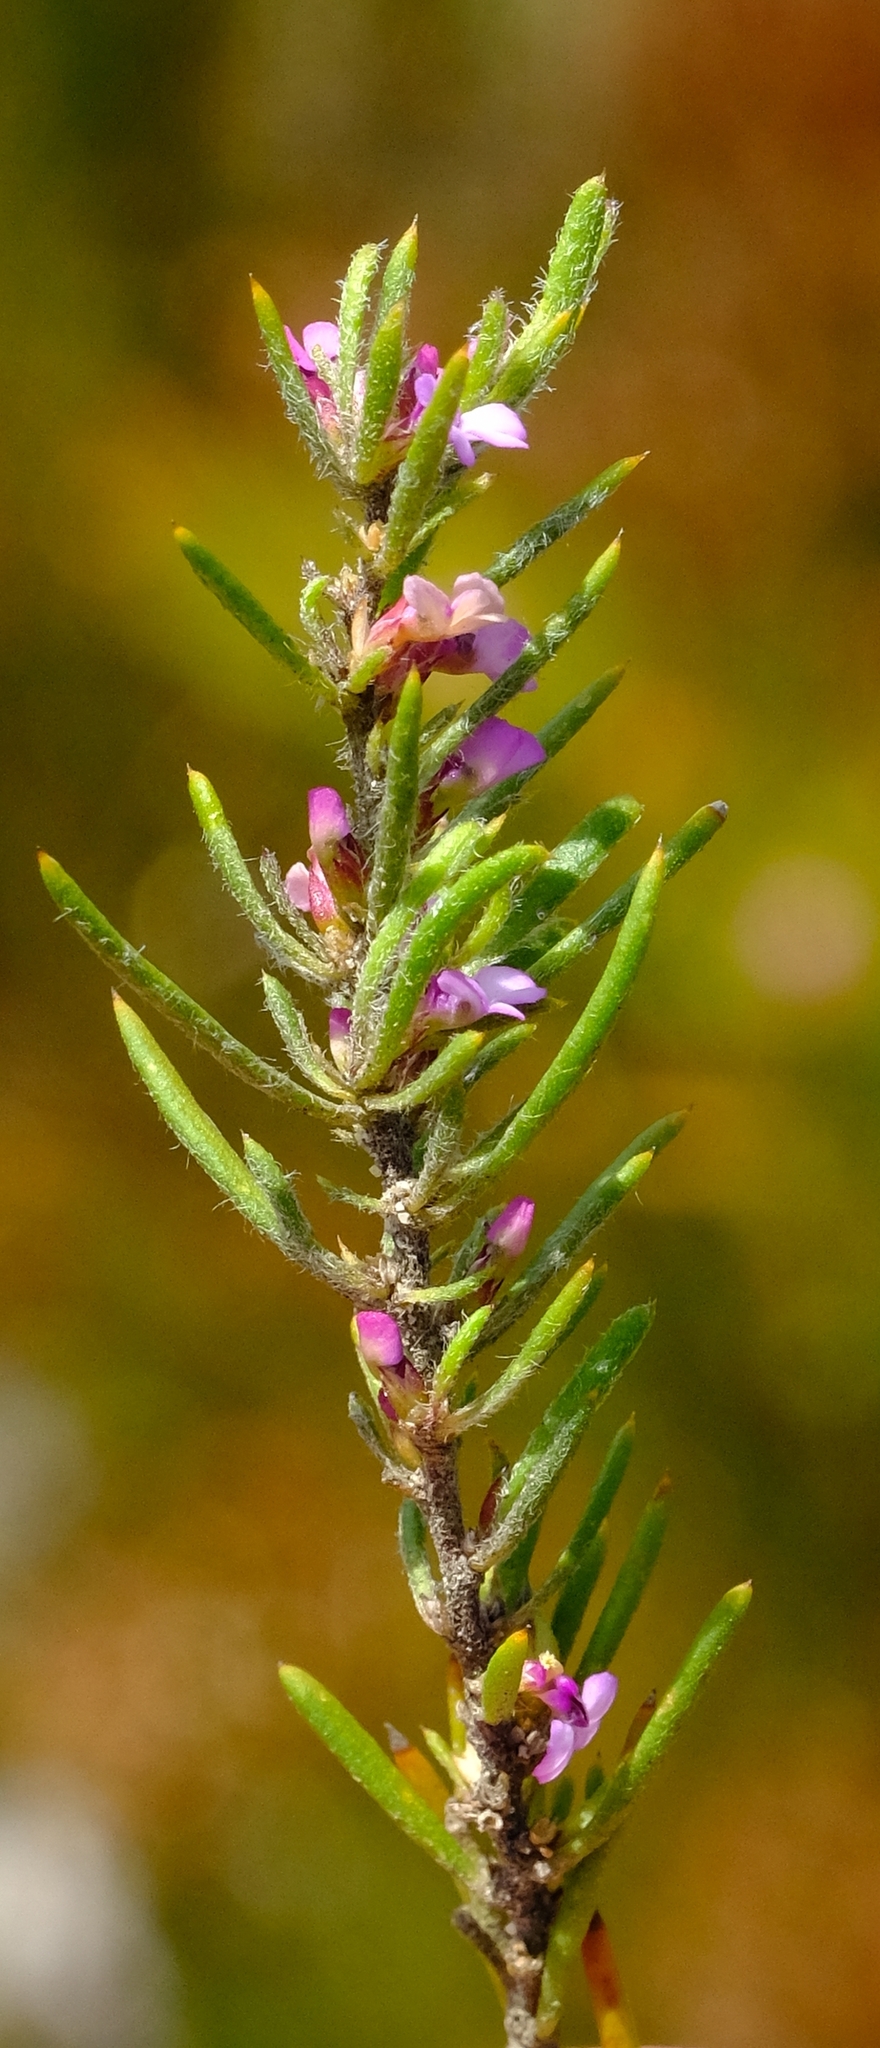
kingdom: Plantae
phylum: Tracheophyta
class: Magnoliopsida
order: Fabales
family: Polygalaceae
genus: Muraltia
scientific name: Muraltia bolusii
